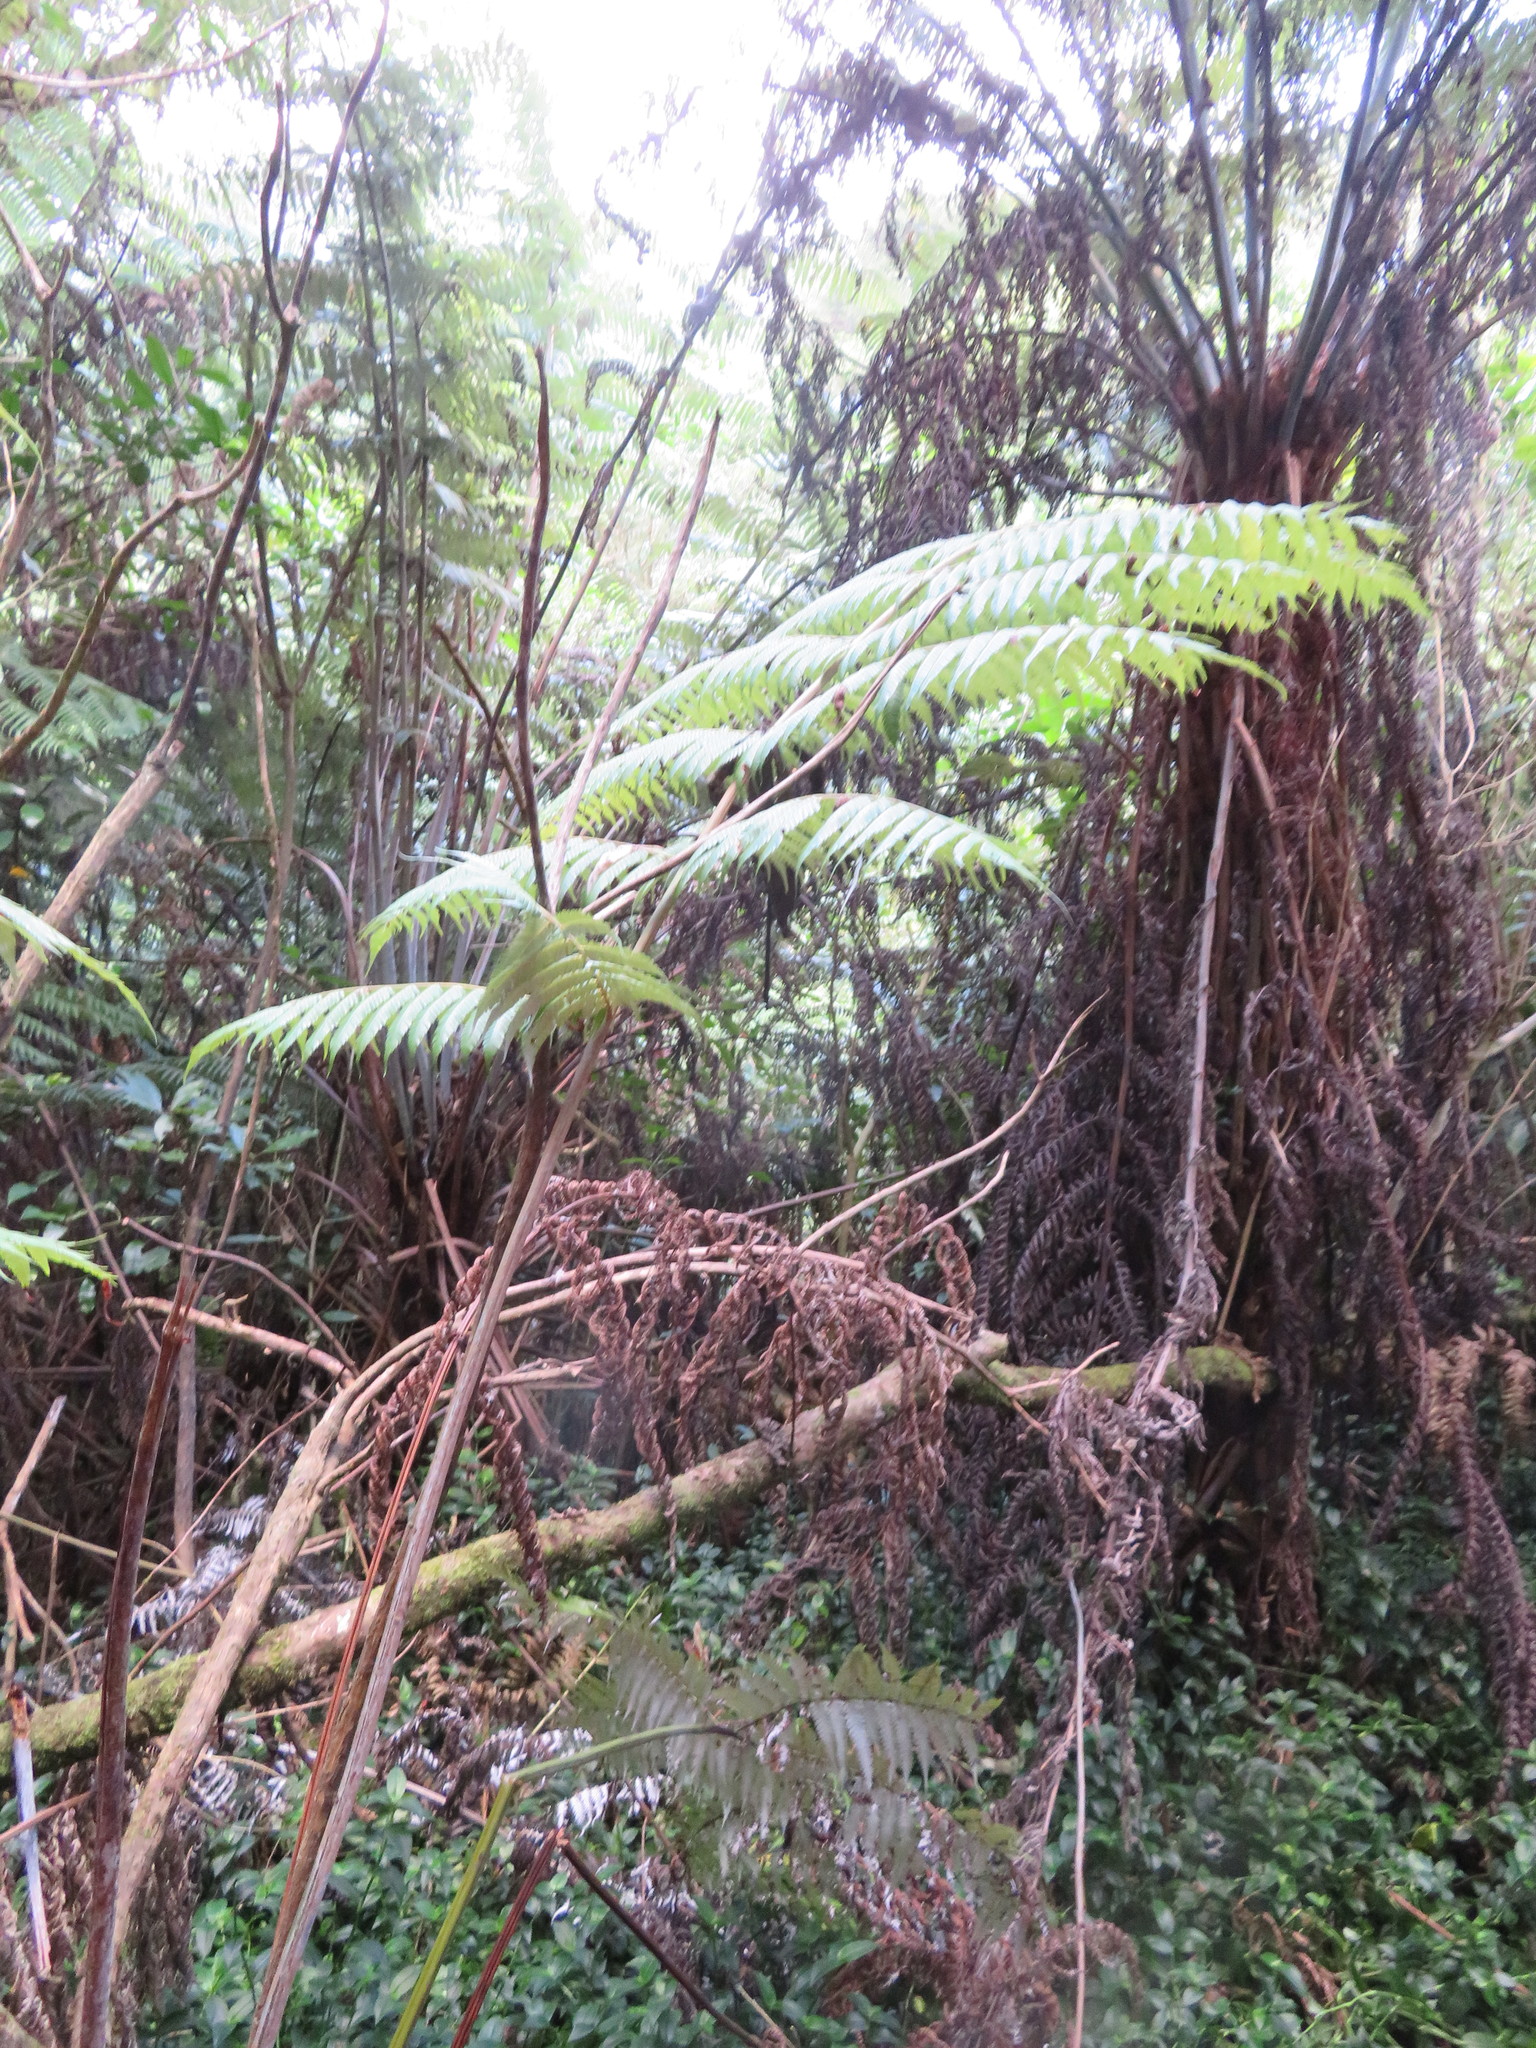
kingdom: Plantae
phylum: Tracheophyta
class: Liliopsida
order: Commelinales
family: Commelinaceae
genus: Tradescantia
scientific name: Tradescantia fluminensis
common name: Wandering-jew
